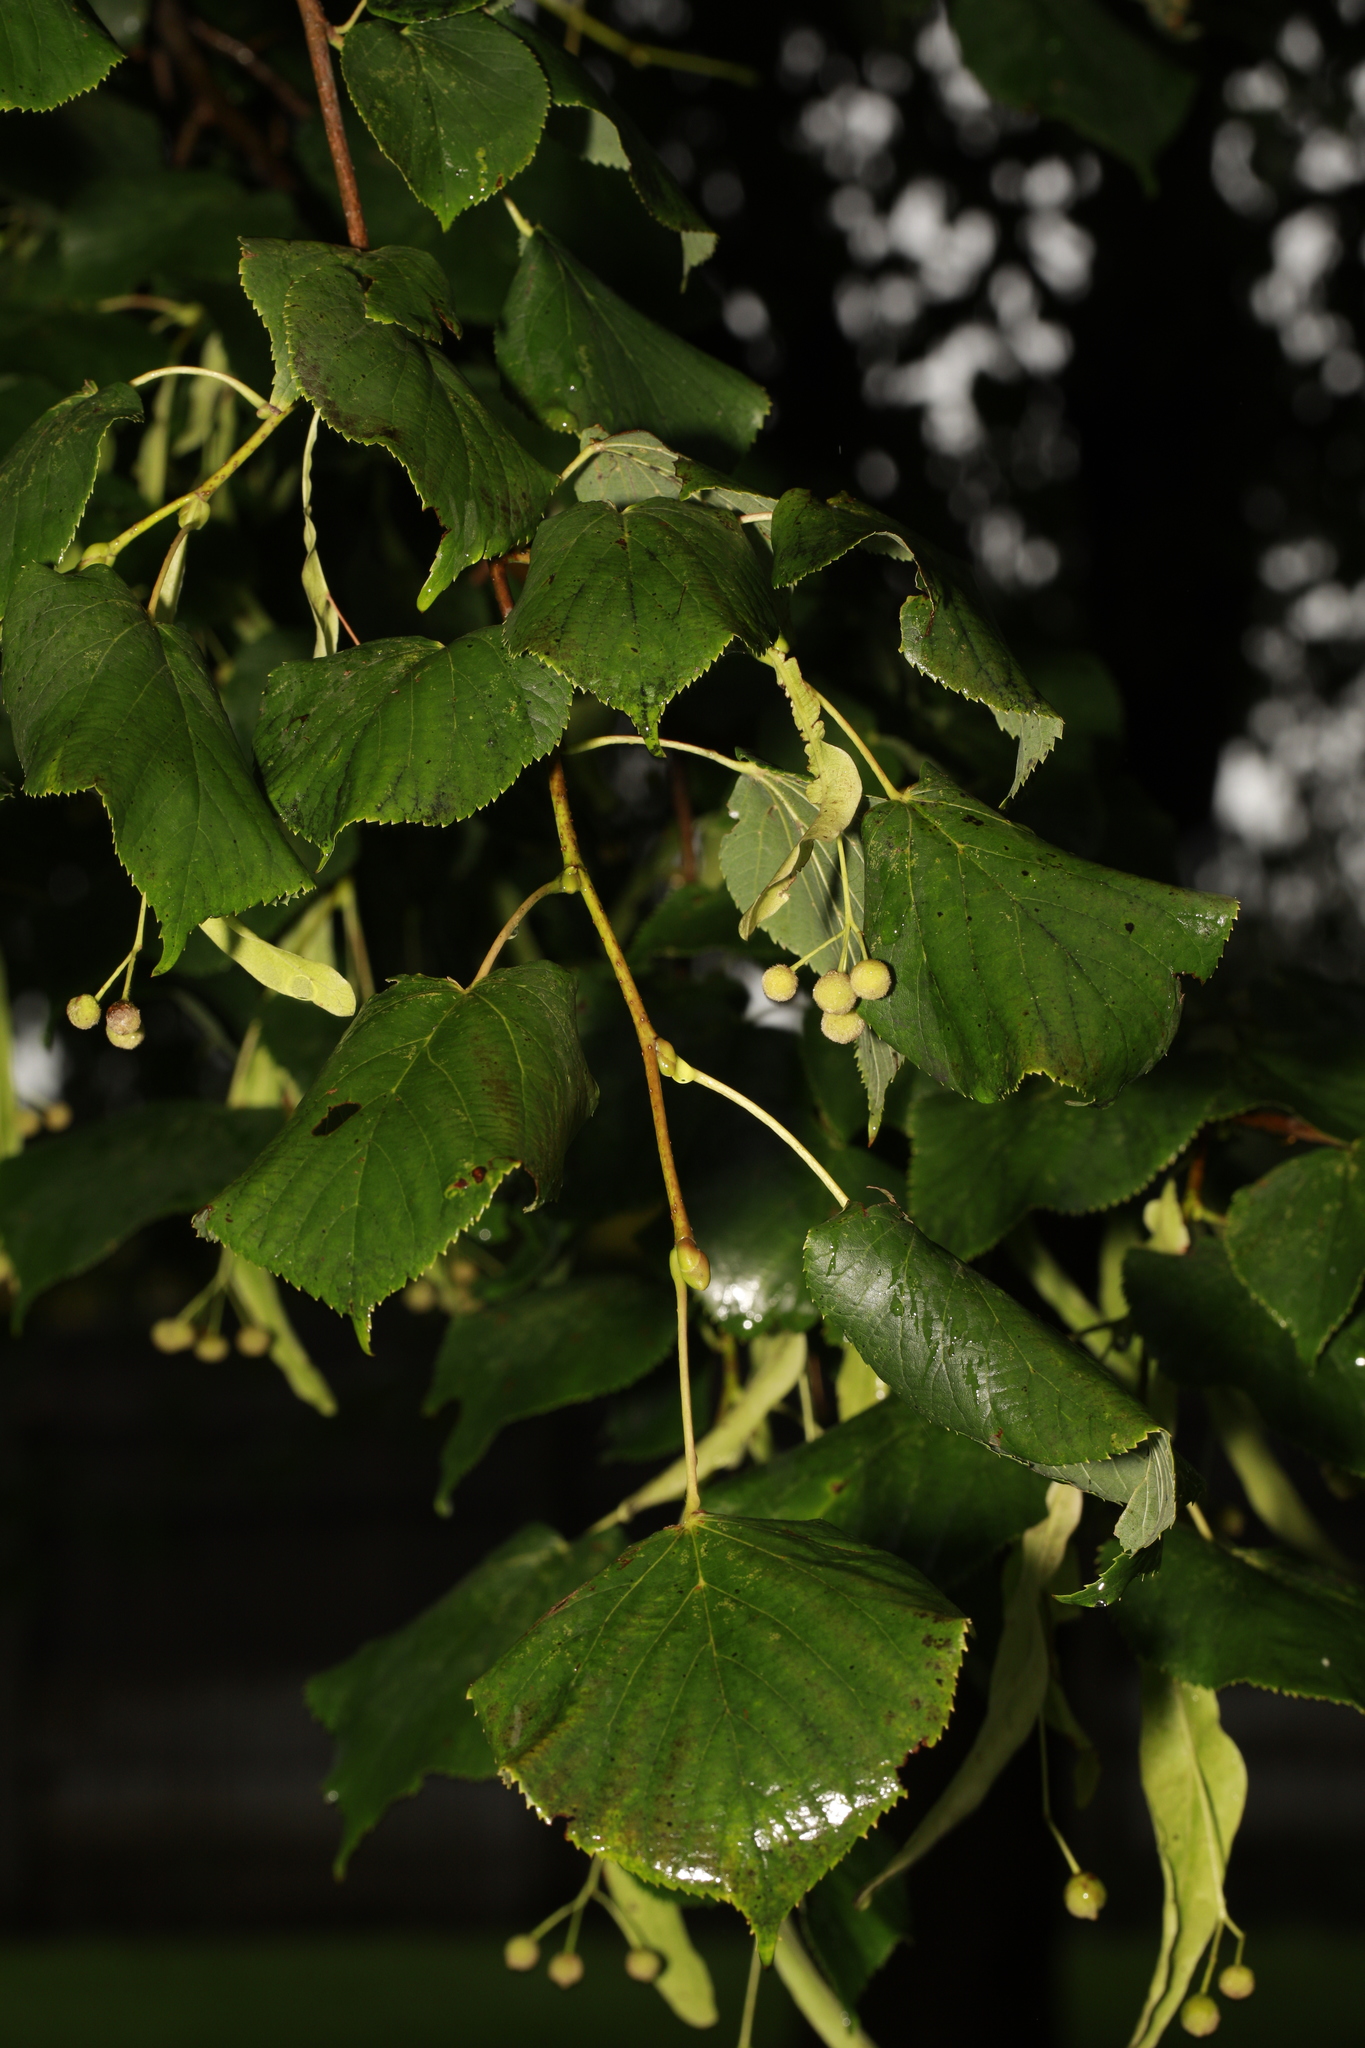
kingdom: Plantae
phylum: Tracheophyta
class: Magnoliopsida
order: Malvales
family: Malvaceae
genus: Tilia
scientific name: Tilia europaea
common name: European linden
